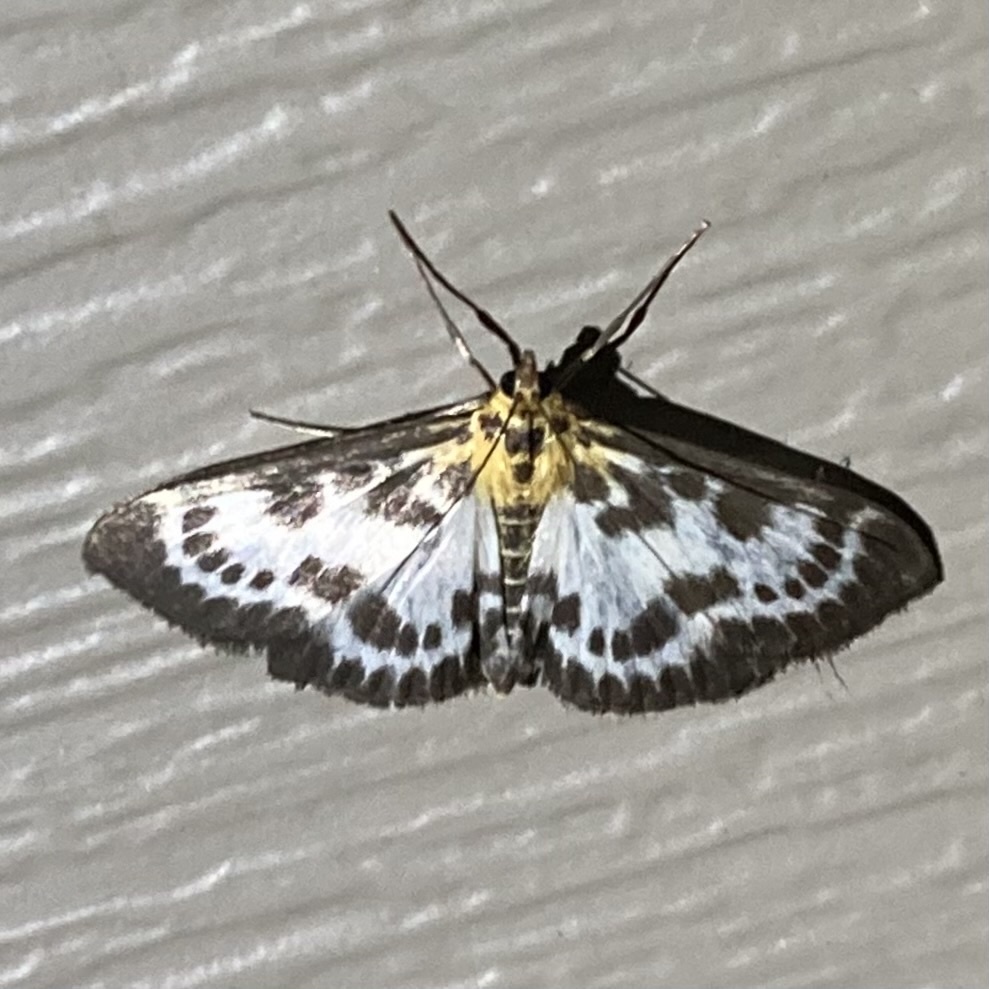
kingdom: Animalia
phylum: Arthropoda
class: Insecta
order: Lepidoptera
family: Crambidae
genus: Anania
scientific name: Anania hortulata
